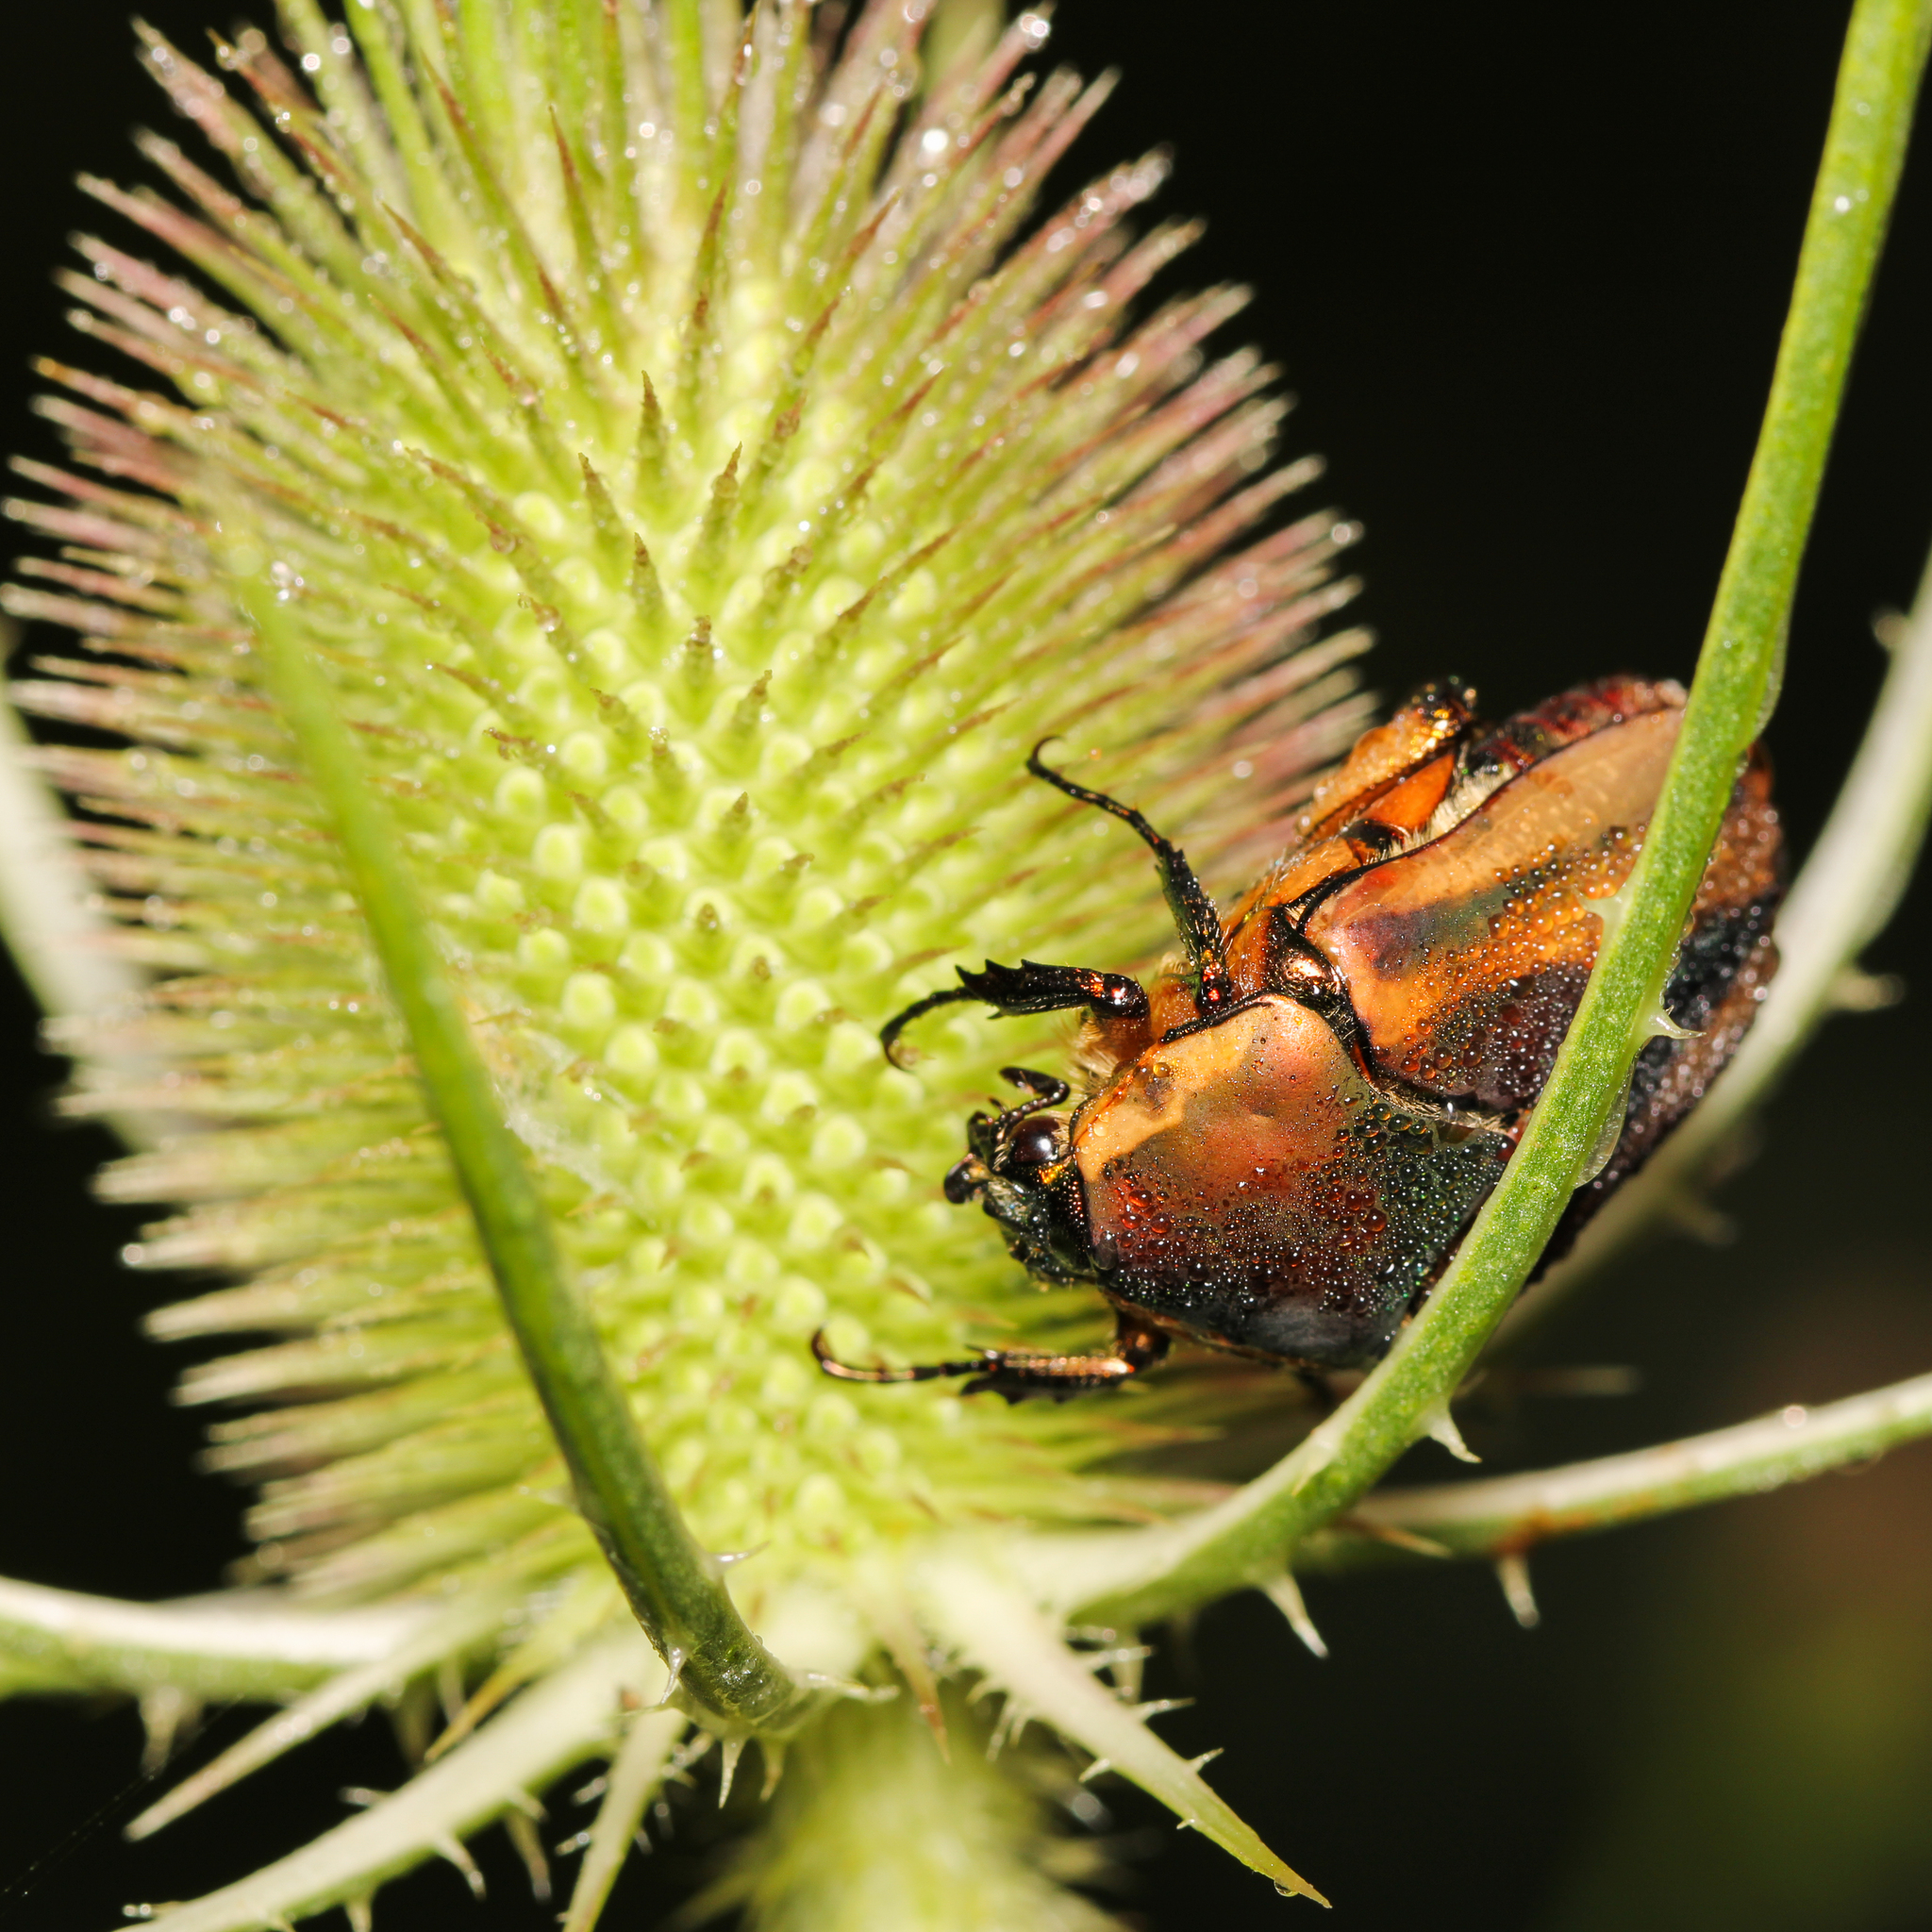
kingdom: Animalia
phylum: Arthropoda
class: Insecta
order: Coleoptera
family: Scarabaeidae
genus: Cotinis
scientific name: Cotinis nitida
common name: Common green june beetle
